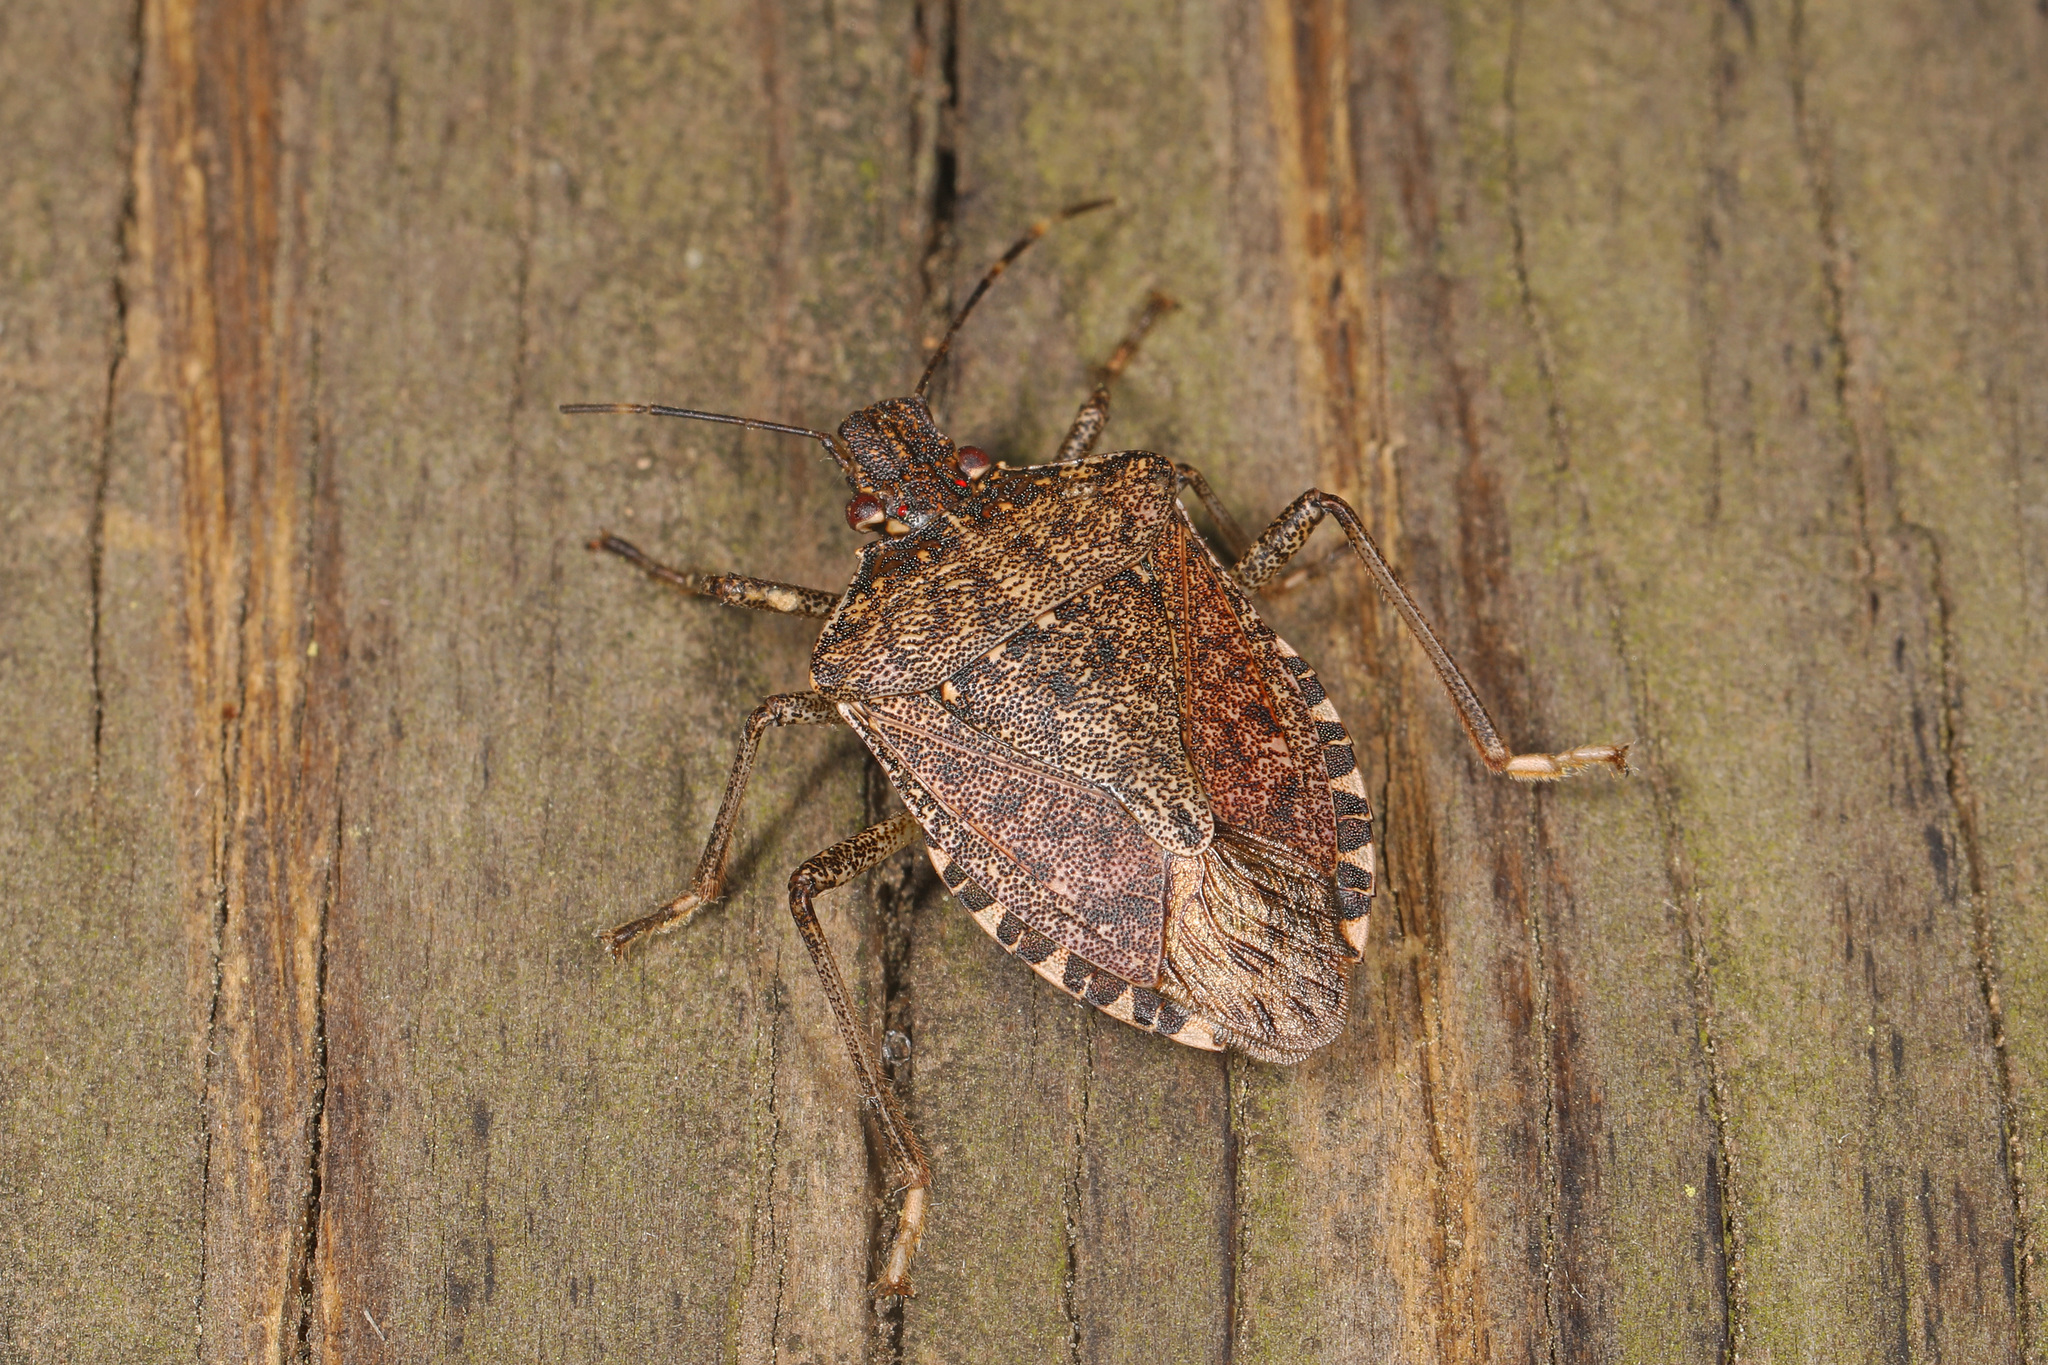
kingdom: Animalia
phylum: Arthropoda
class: Insecta
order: Hemiptera
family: Pentatomidae
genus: Halyomorpha
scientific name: Halyomorpha halys
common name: Brown marmorated stink bug
